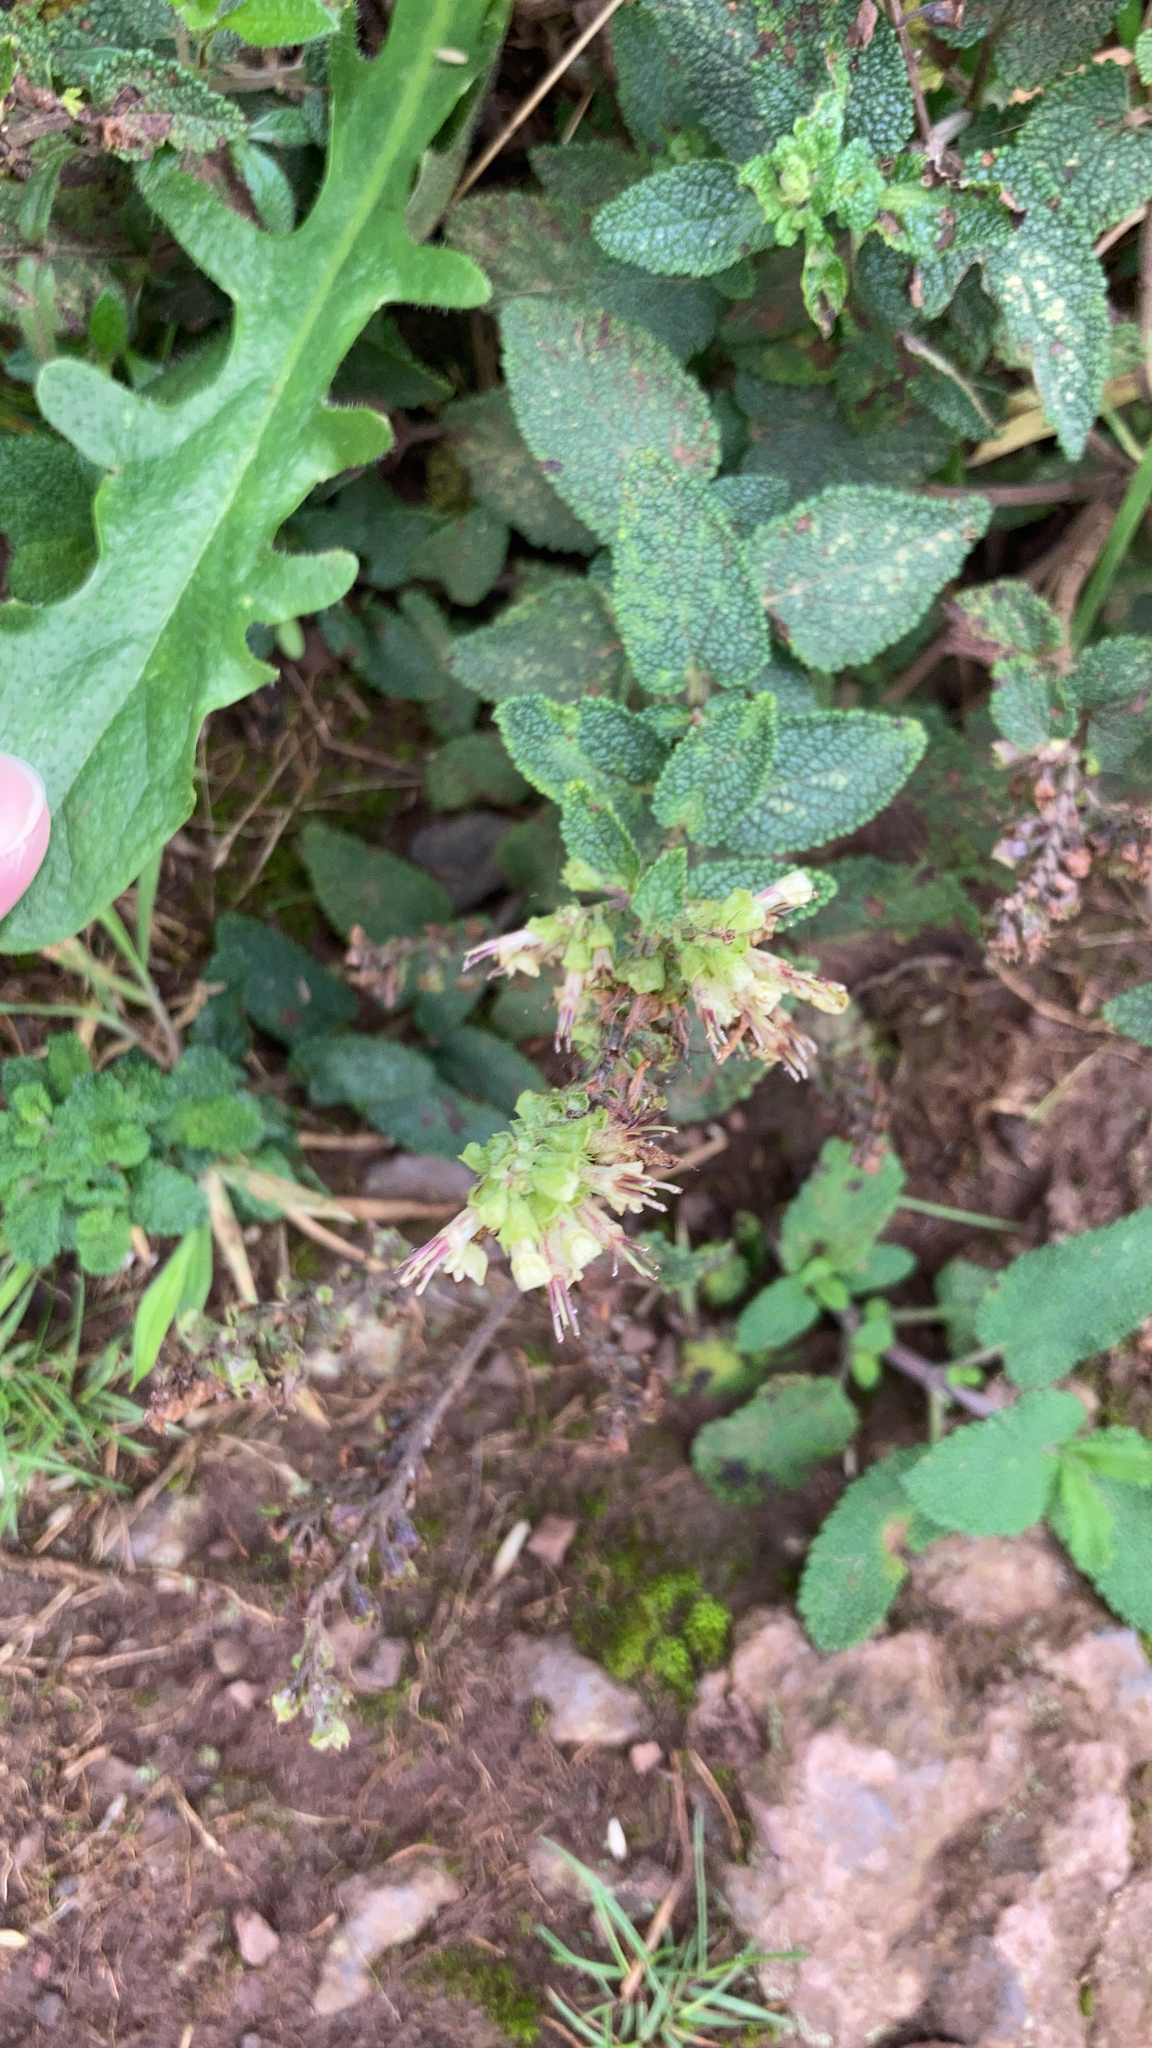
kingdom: Plantae
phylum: Tracheophyta
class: Magnoliopsida
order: Lamiales
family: Lamiaceae
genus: Teucrium
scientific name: Teucrium scorodonia
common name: Woodland germander
